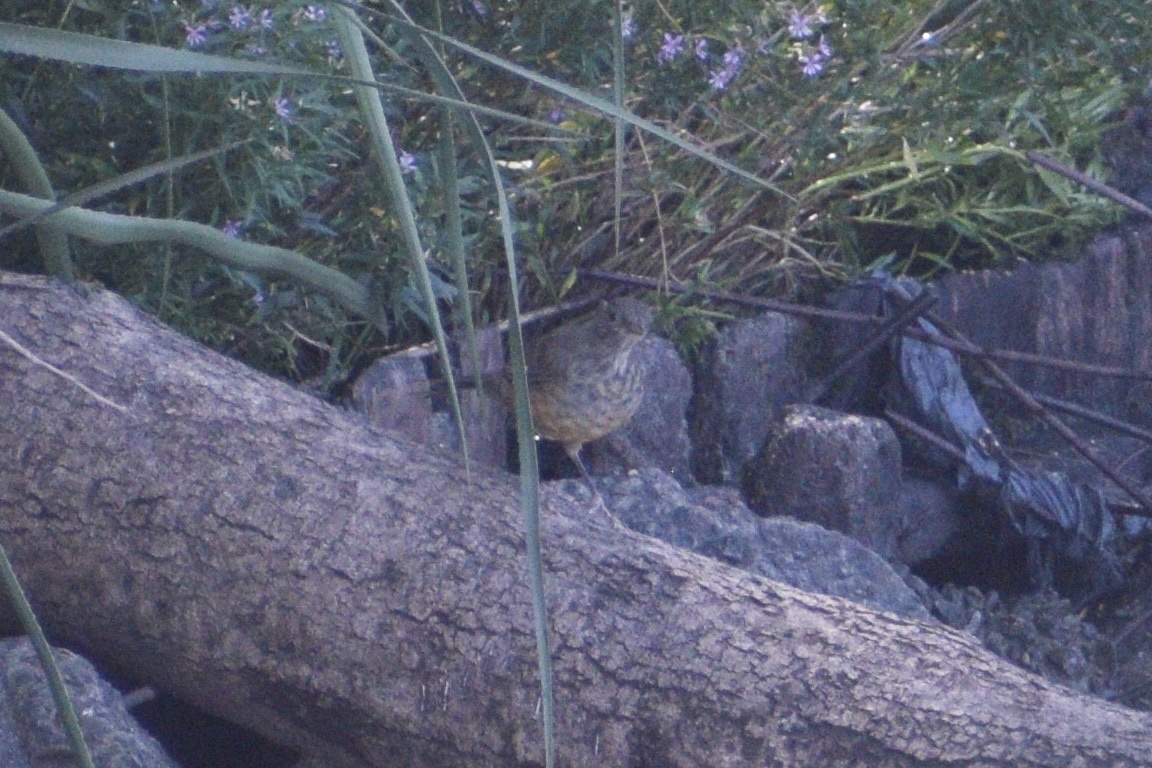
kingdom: Animalia
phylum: Chordata
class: Aves
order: Passeriformes
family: Turdidae
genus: Turdus
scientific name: Turdus rufiventris
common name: Rufous-bellied thrush
